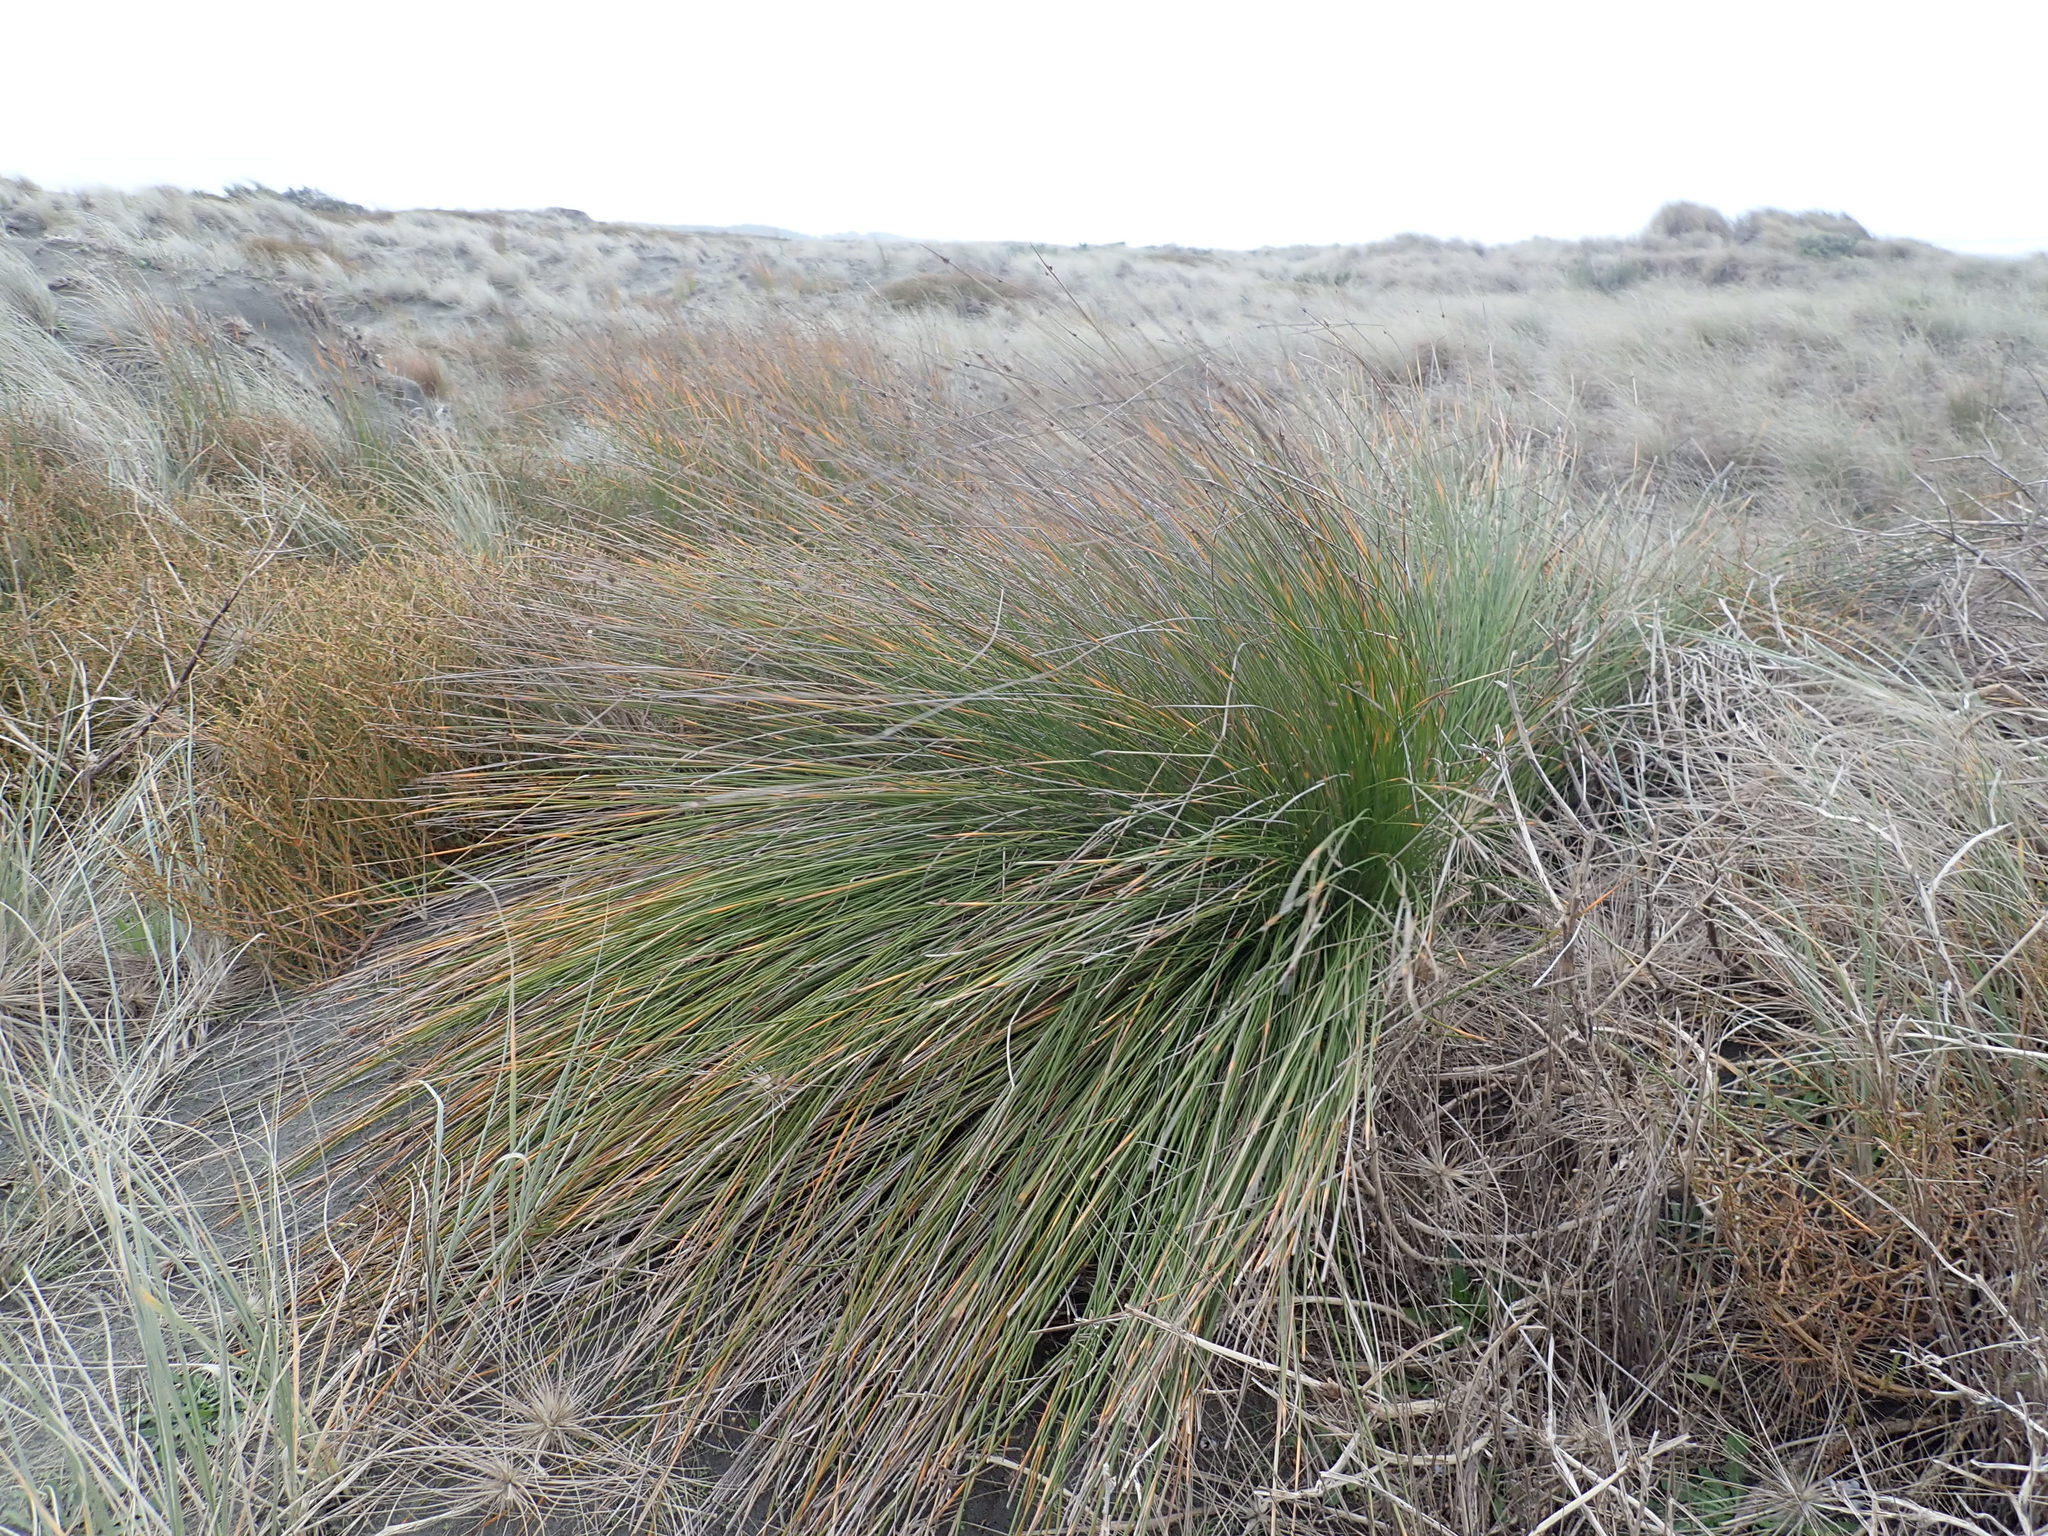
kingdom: Plantae
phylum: Tracheophyta
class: Liliopsida
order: Poales
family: Cyperaceae
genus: Ficinia
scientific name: Ficinia nodosa
